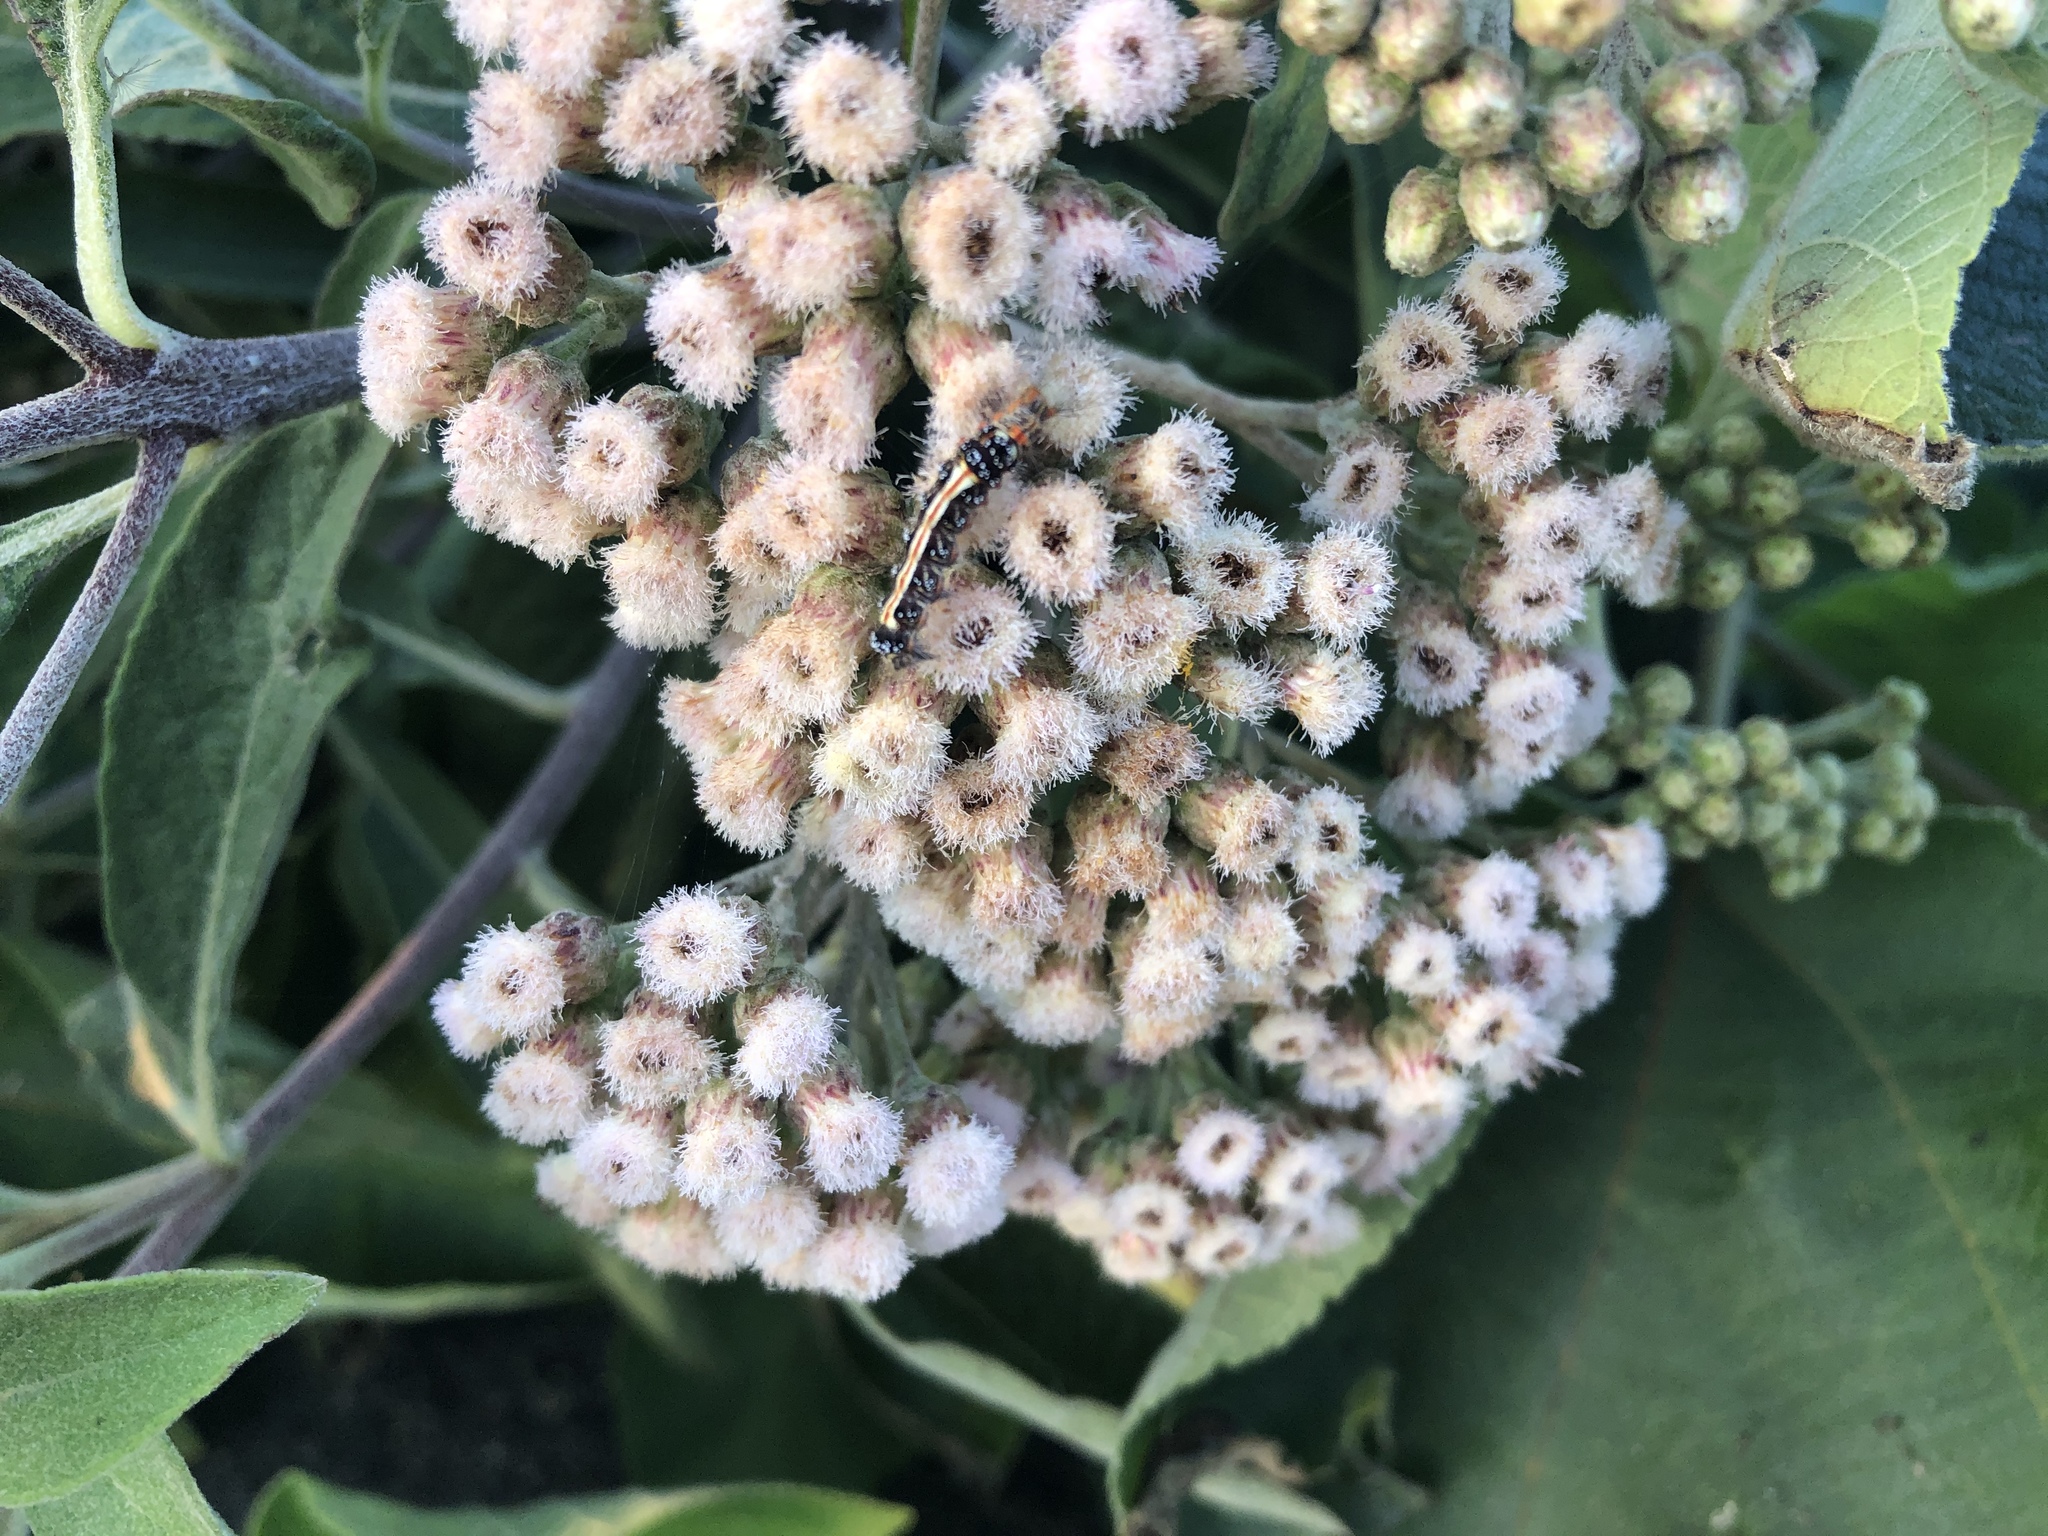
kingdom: Plantae
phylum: Tracheophyta
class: Magnoliopsida
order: Asterales
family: Asteraceae
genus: Pluchea
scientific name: Pluchea carolinensis
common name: Marsh fleabane
